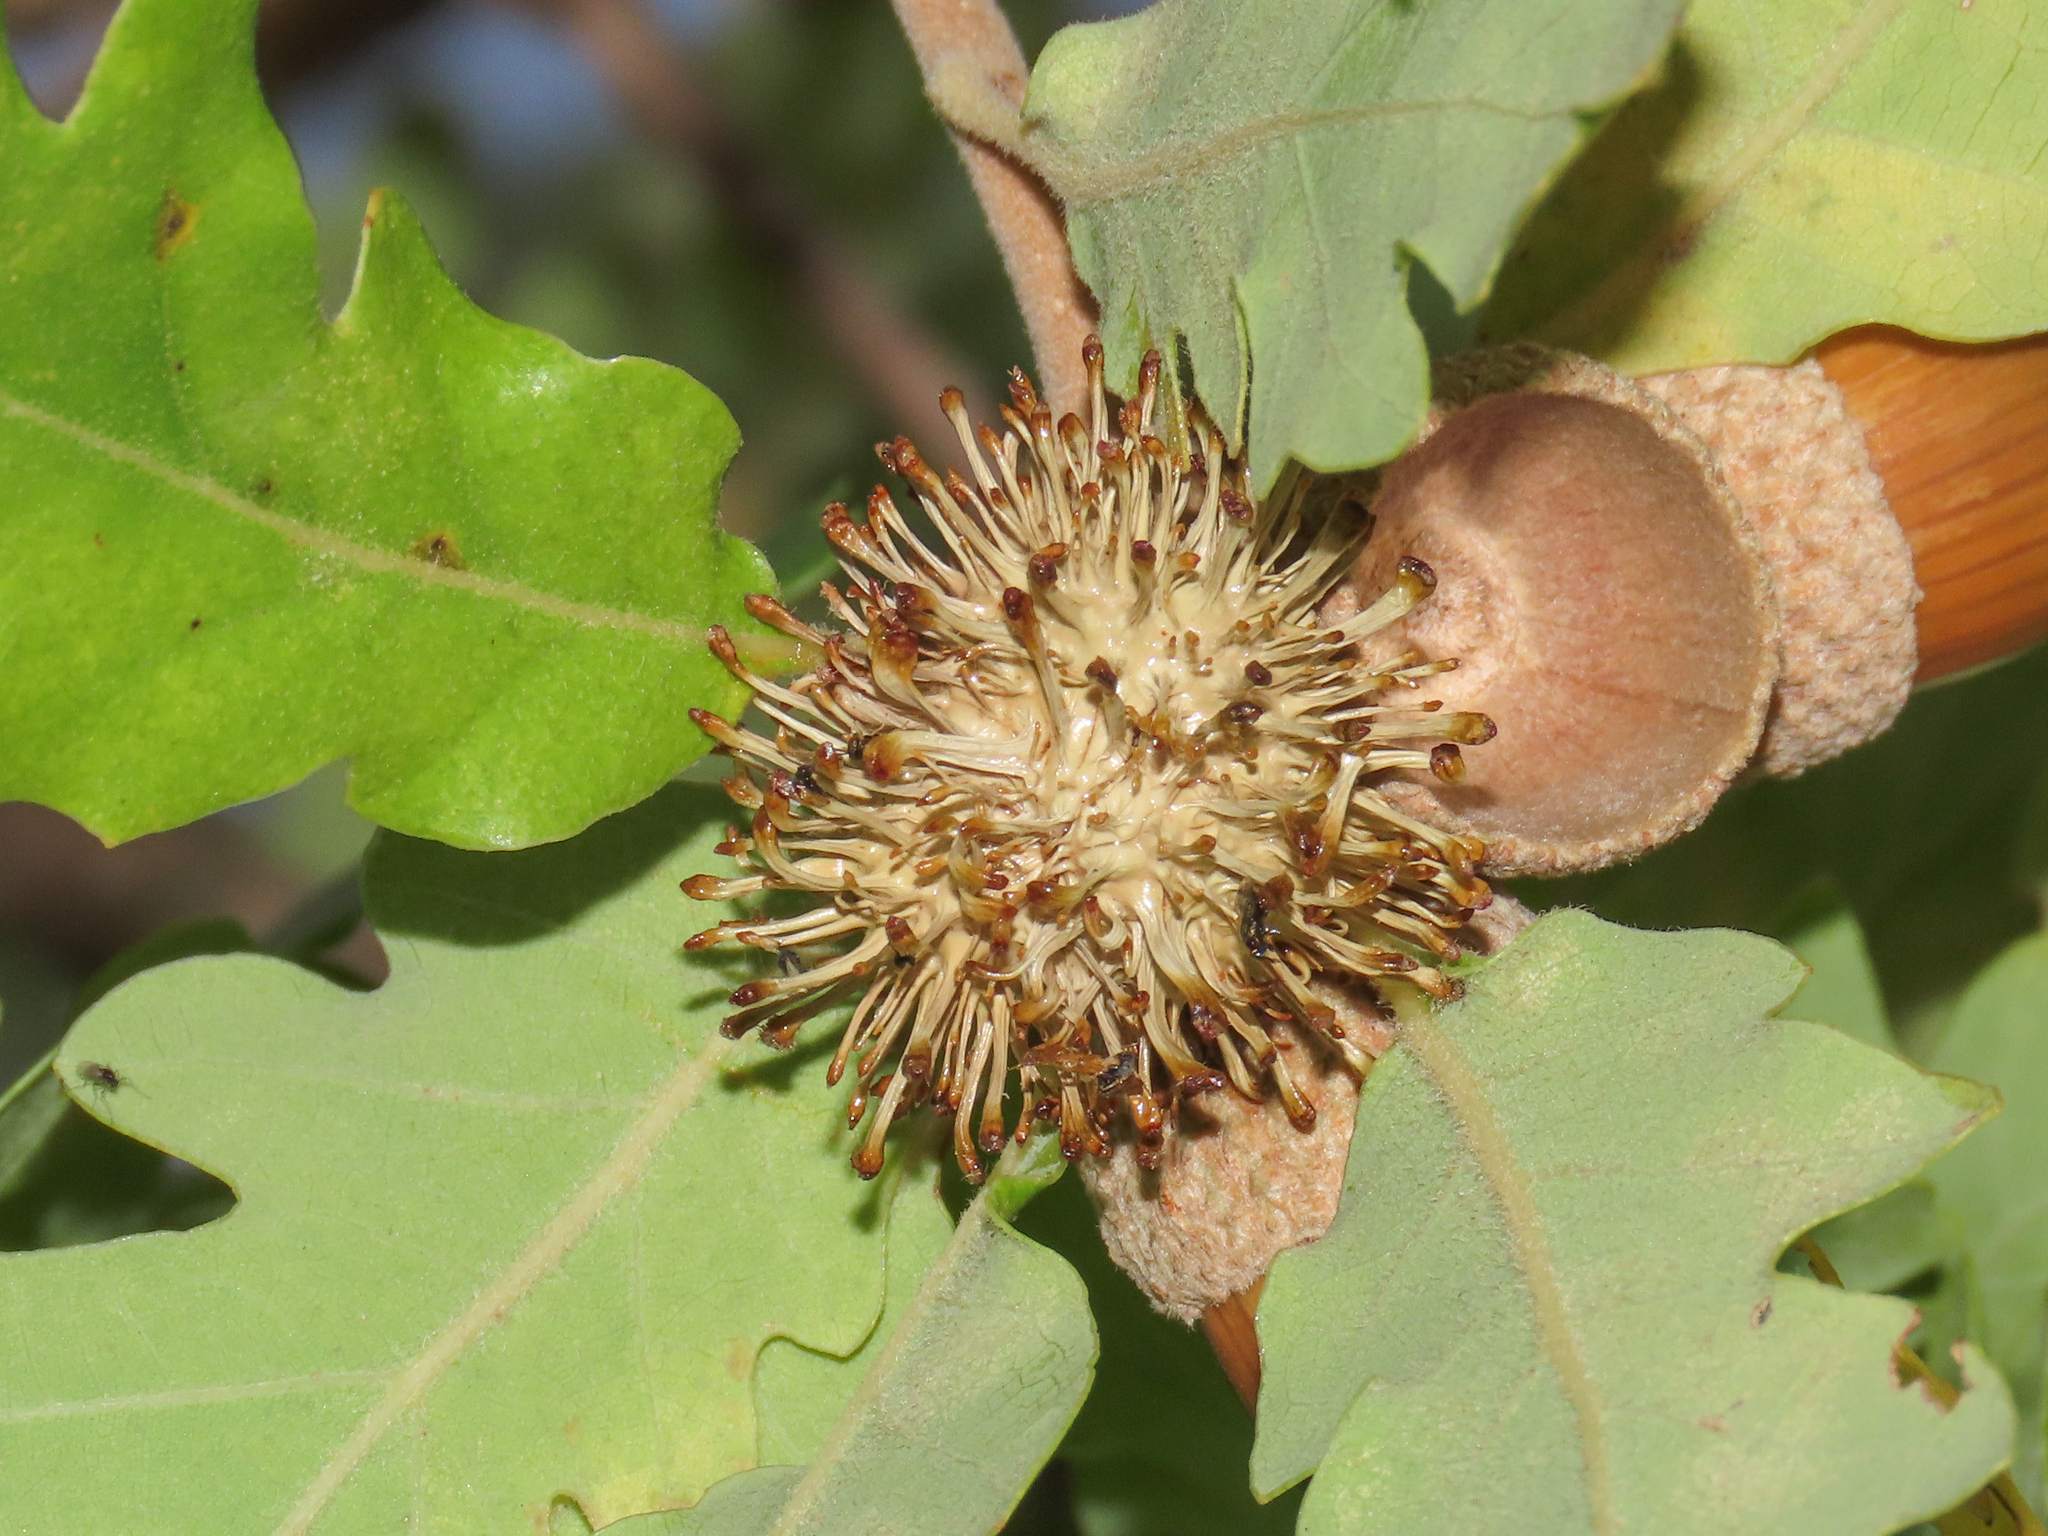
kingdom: Animalia
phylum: Arthropoda
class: Insecta
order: Hymenoptera
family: Cynipidae
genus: Andricus
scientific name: Andricus lucidus
